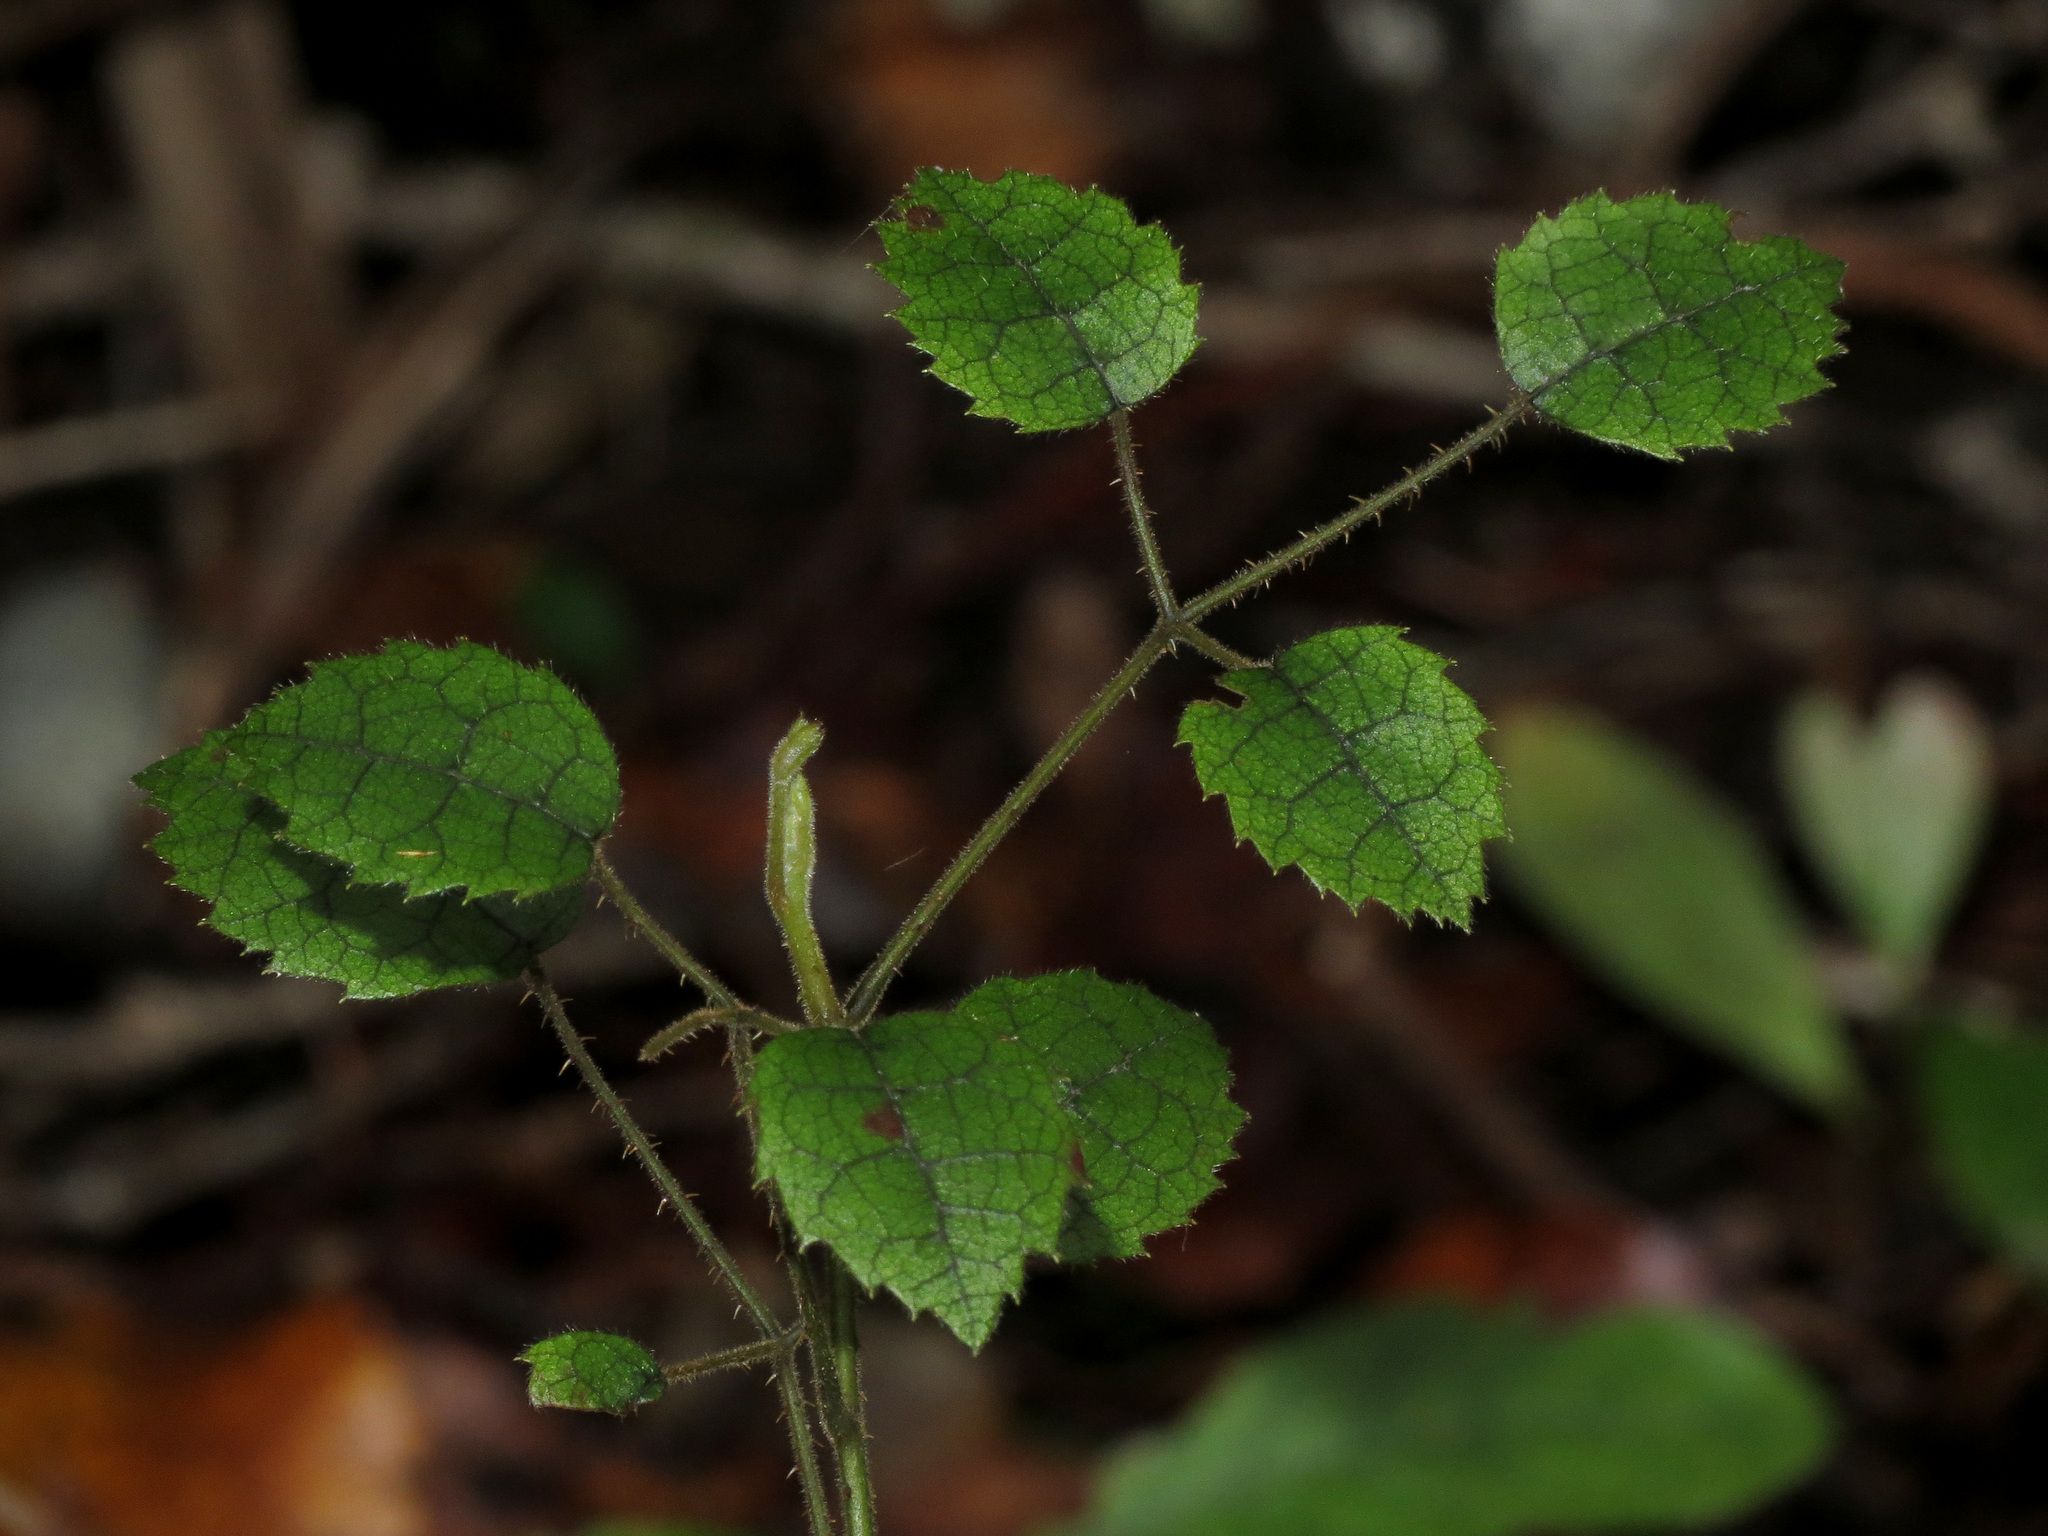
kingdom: Plantae
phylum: Tracheophyta
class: Magnoliopsida
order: Rosales
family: Rosaceae
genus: Rubus
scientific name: Rubus australis
